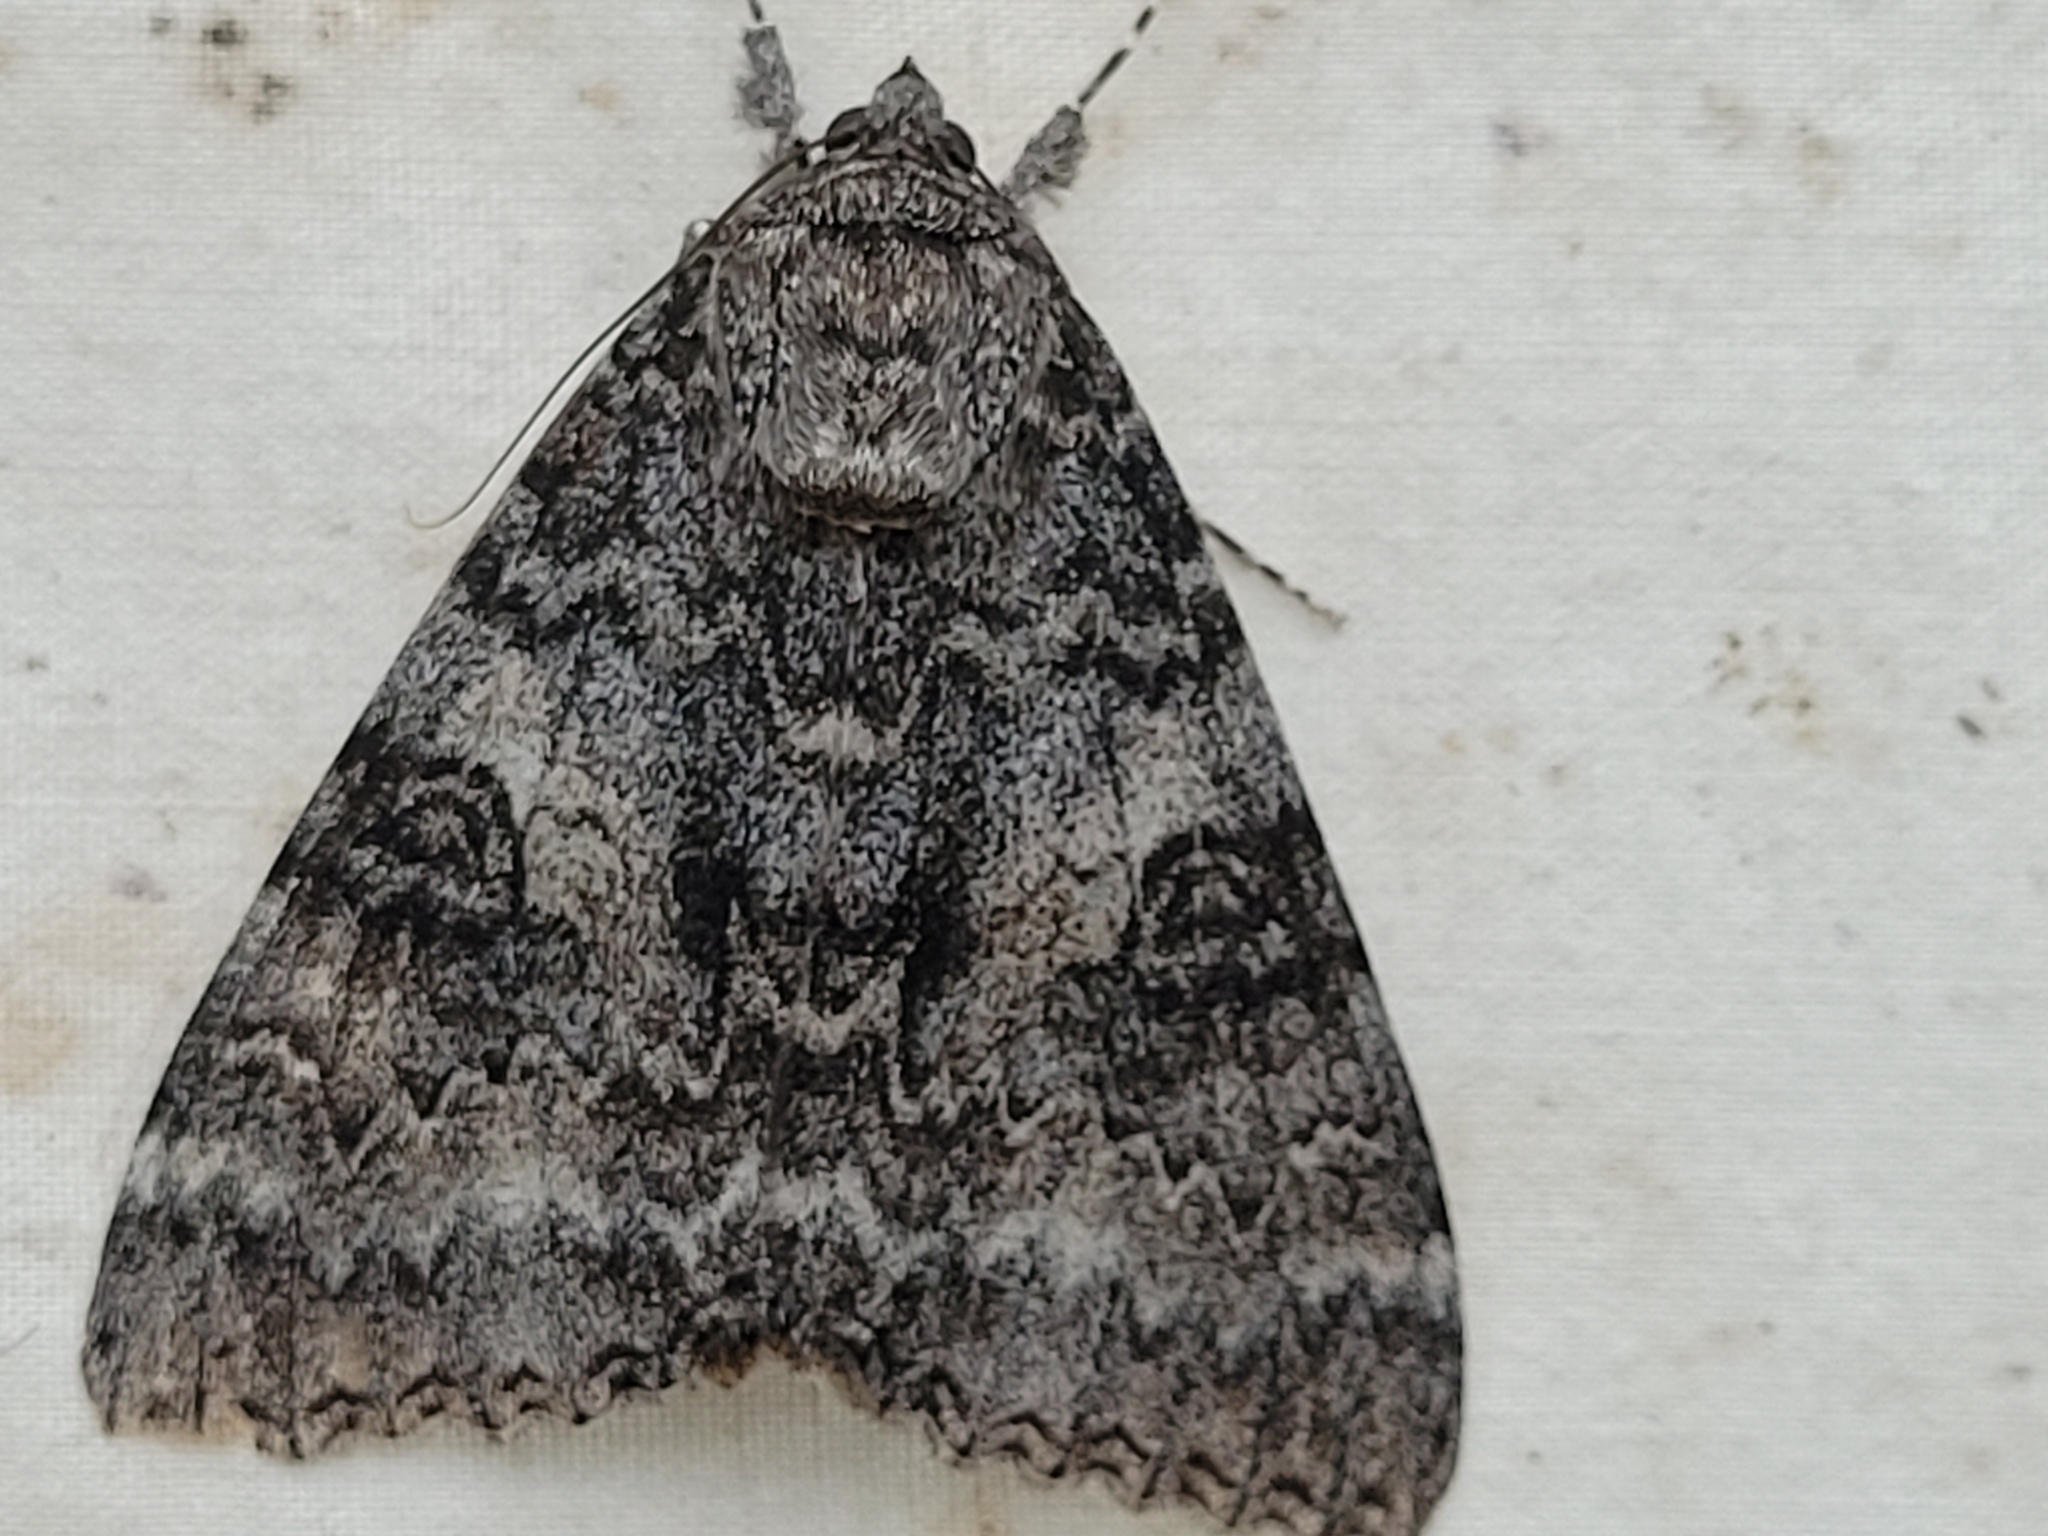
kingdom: Animalia
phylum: Arthropoda
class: Insecta
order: Lepidoptera
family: Erebidae
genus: Catocala
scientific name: Catocala unijuga
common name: Once-married underwing
